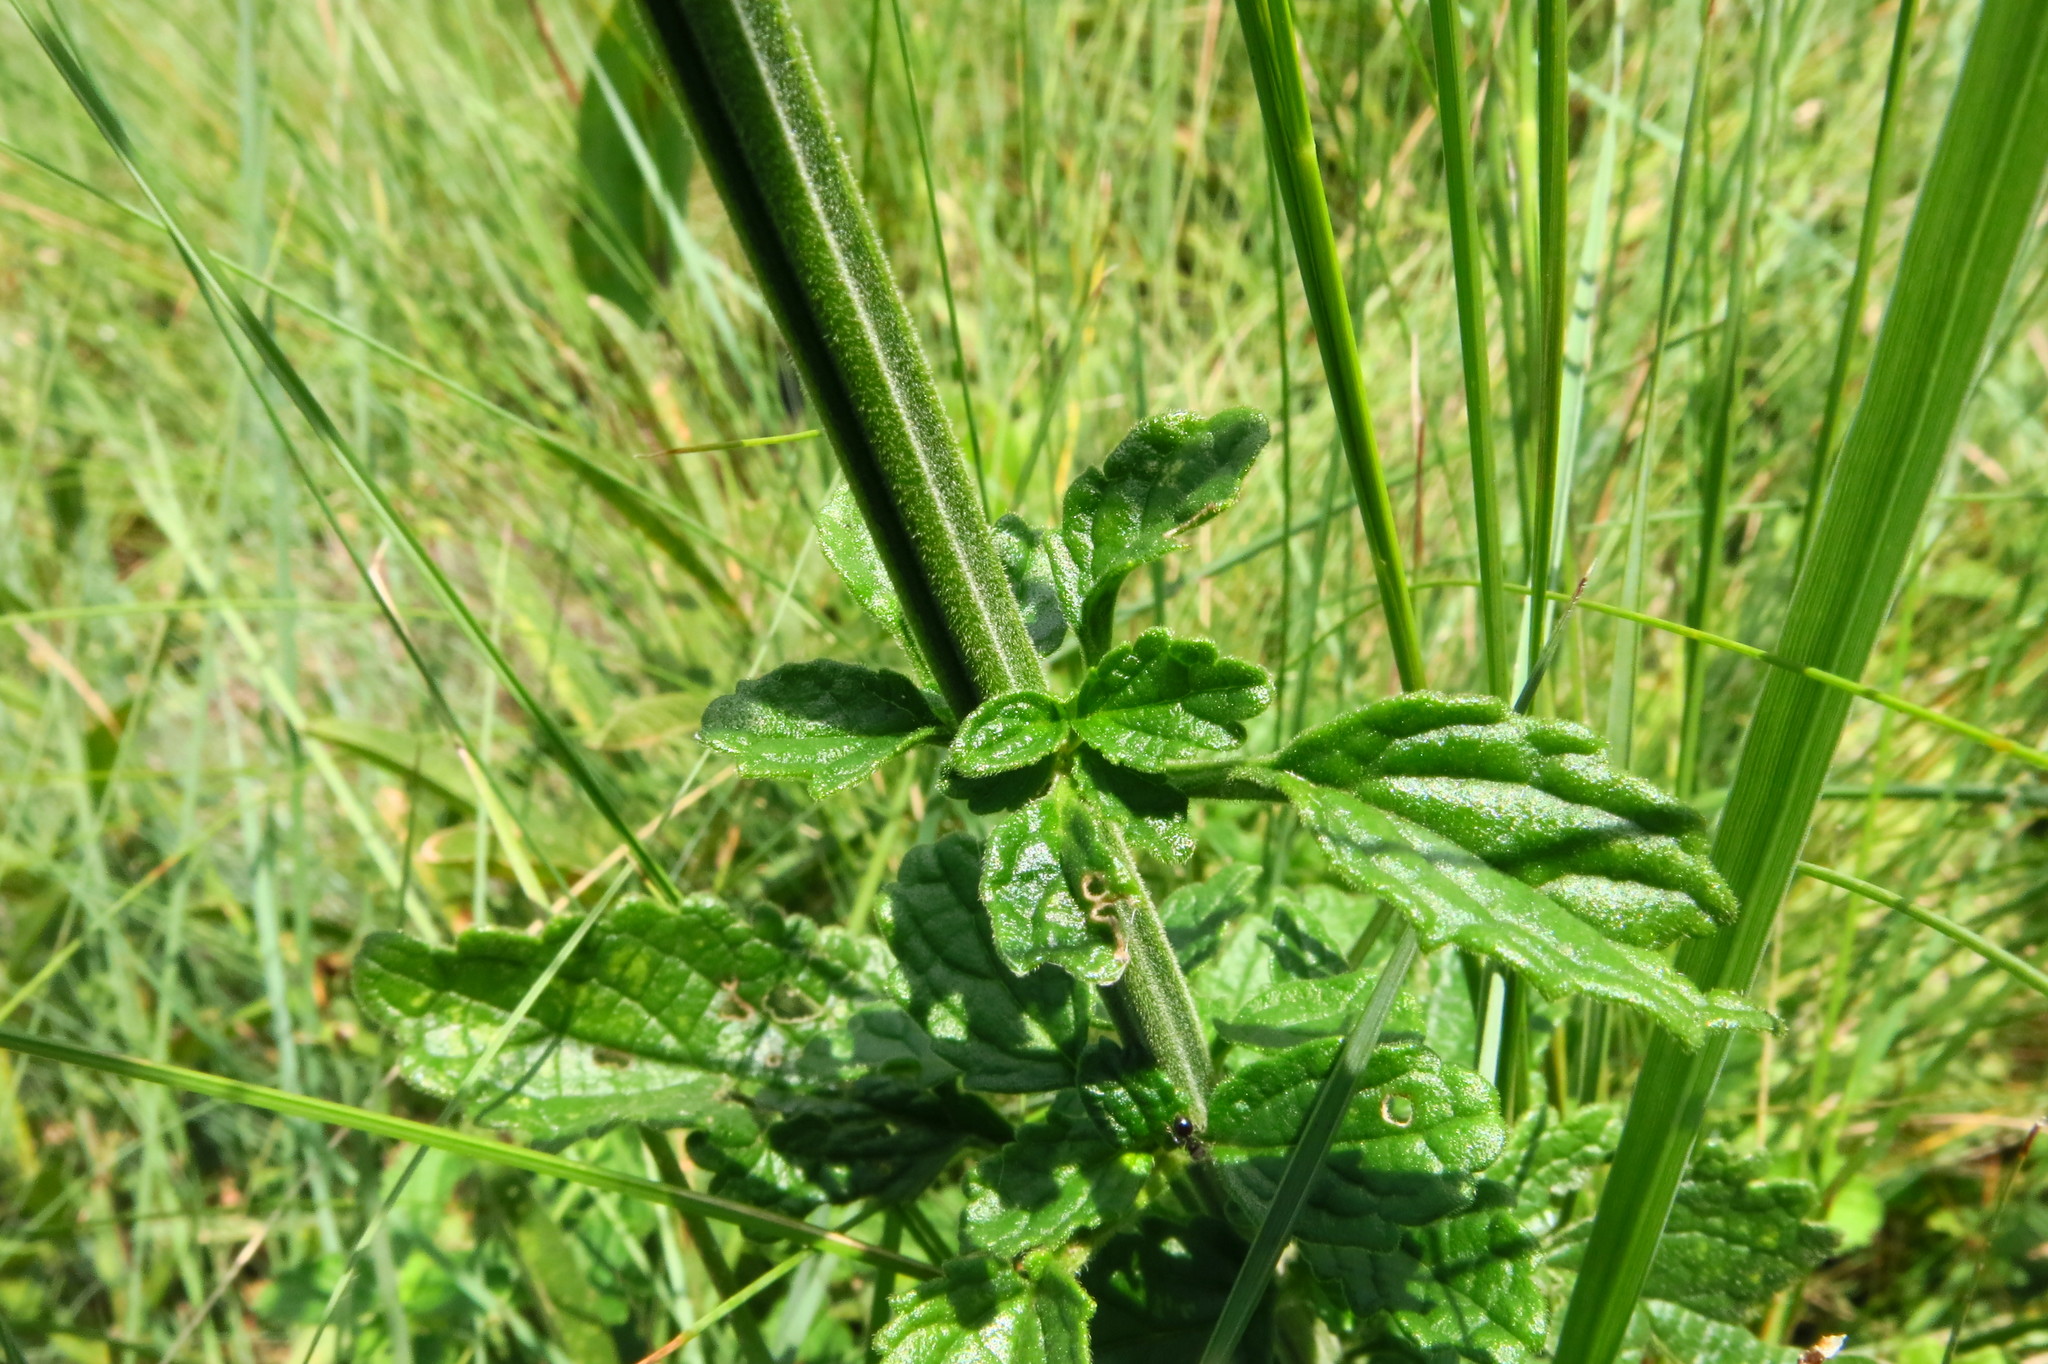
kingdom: Plantae
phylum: Tracheophyta
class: Magnoliopsida
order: Lamiales
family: Lamiaceae
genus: Leonotis
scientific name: Leonotis ocymifolia
